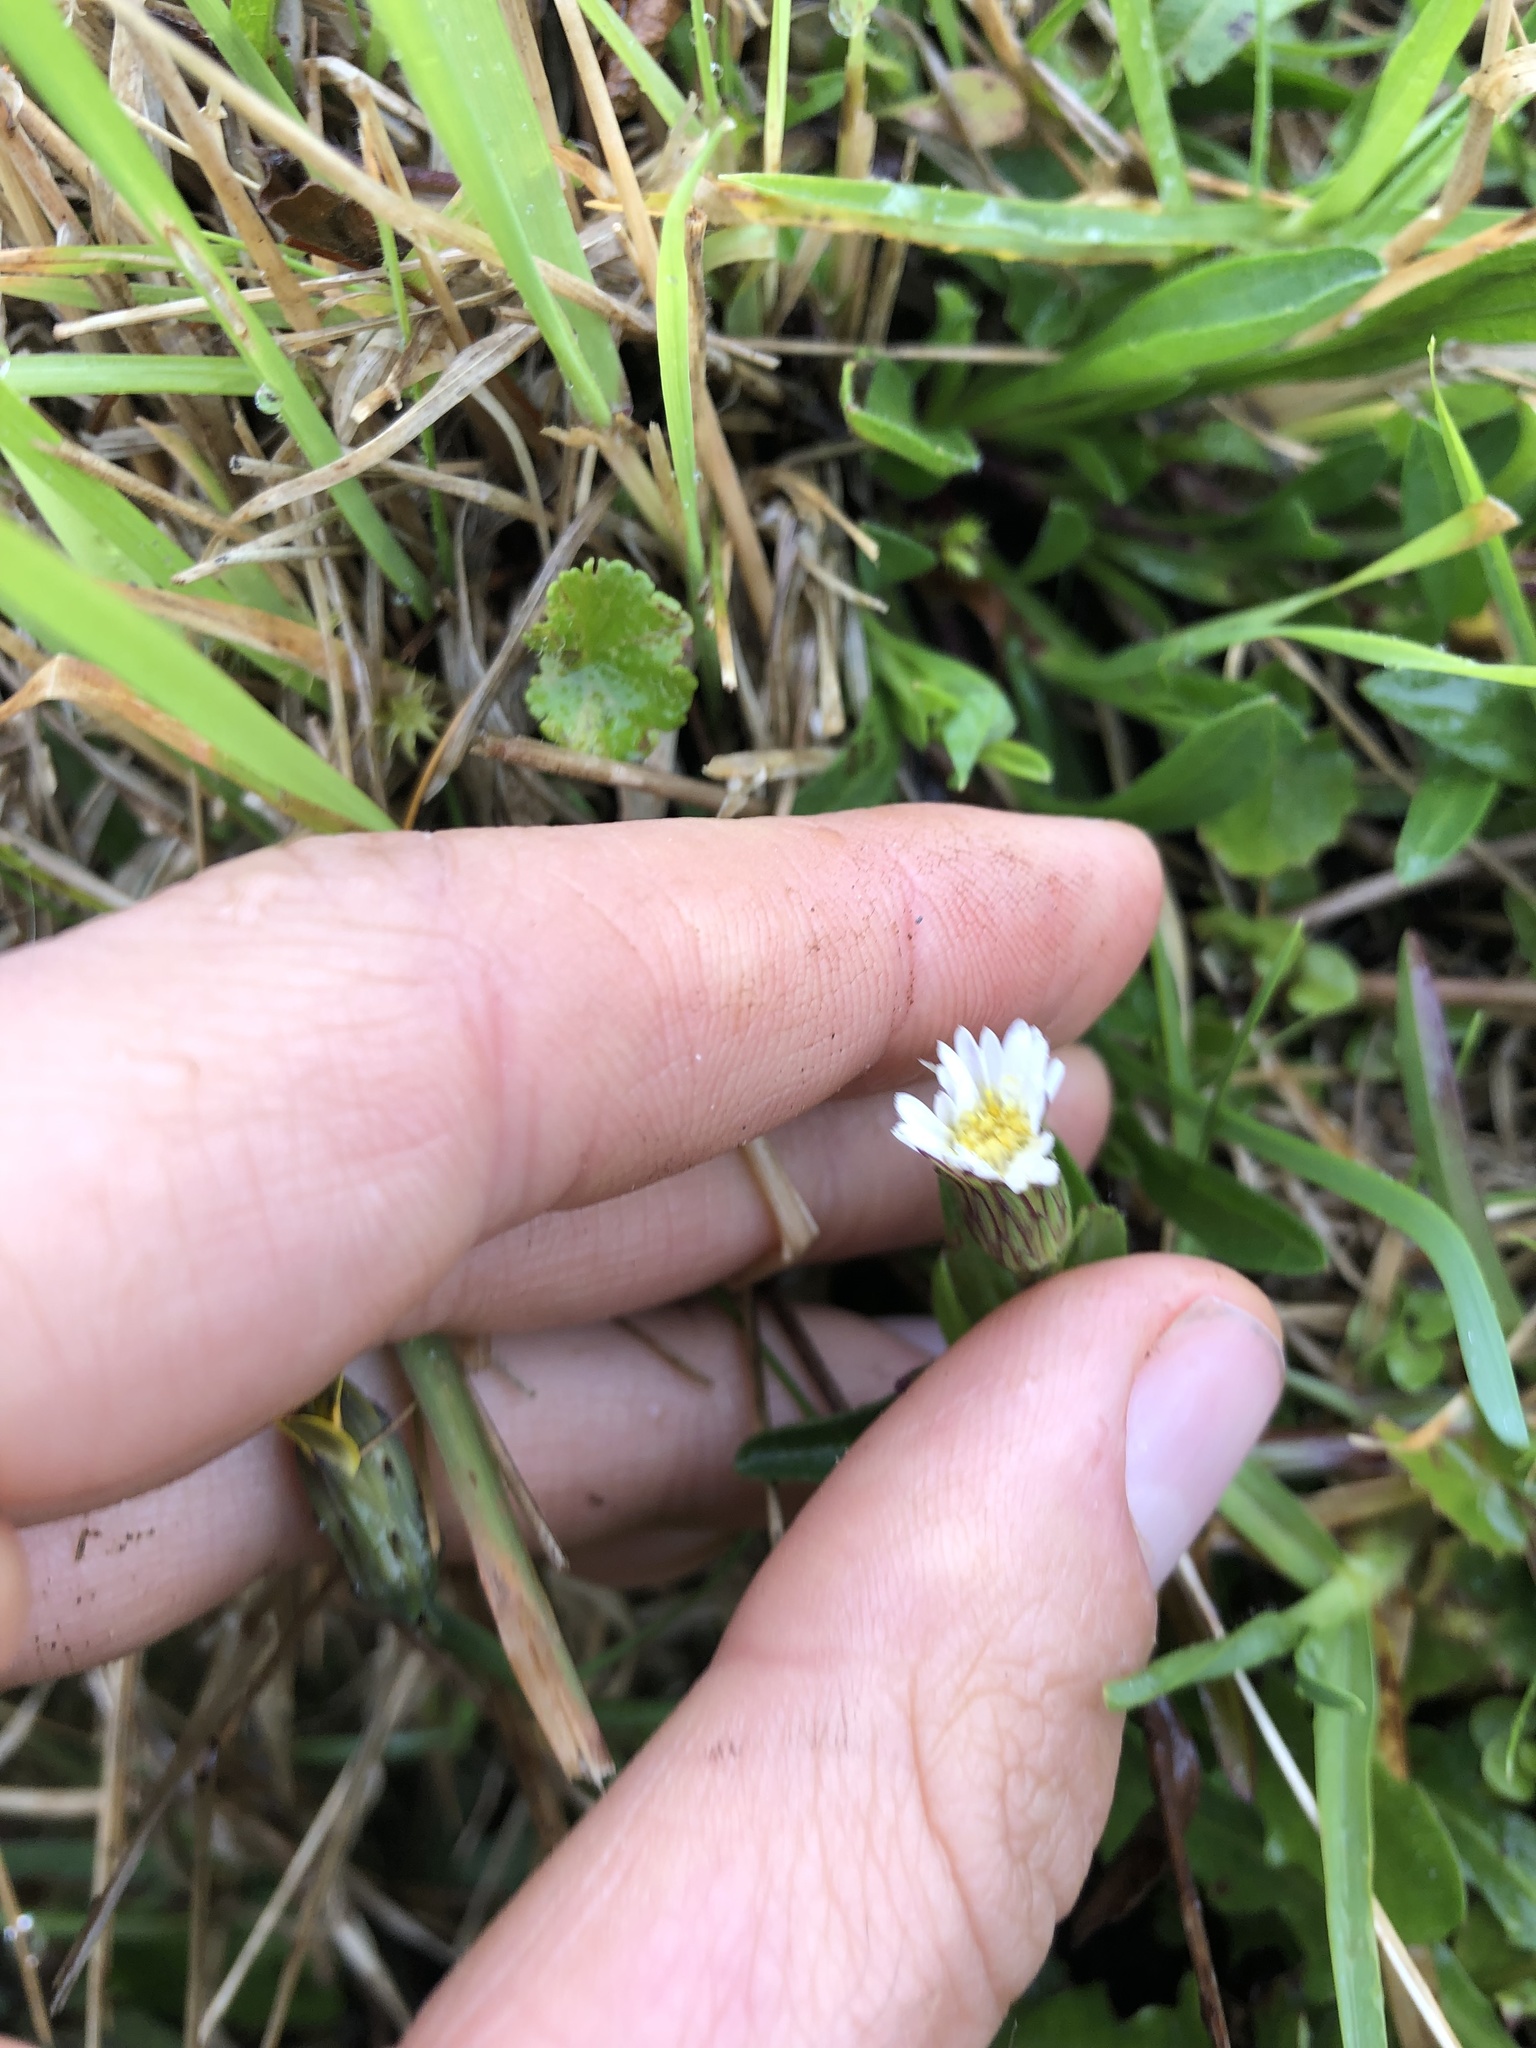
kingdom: Plantae
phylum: Tracheophyta
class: Magnoliopsida
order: Asterales
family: Asteraceae
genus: Noticastrum
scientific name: Noticastrum marginatum
